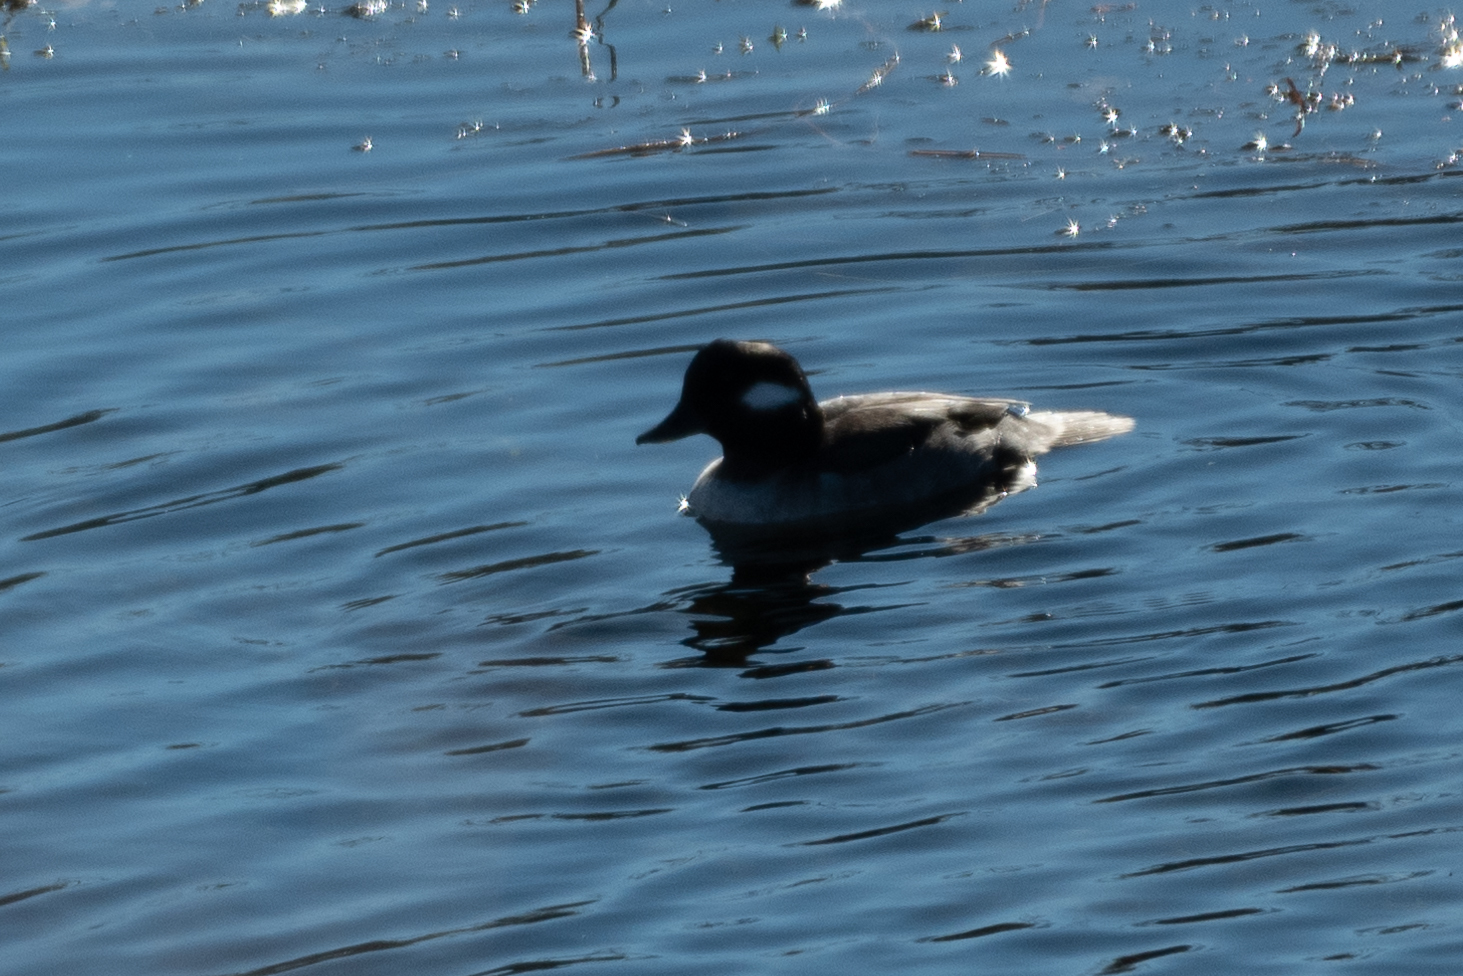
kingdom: Animalia
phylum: Chordata
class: Aves
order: Anseriformes
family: Anatidae
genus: Bucephala
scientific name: Bucephala albeola
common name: Bufflehead
